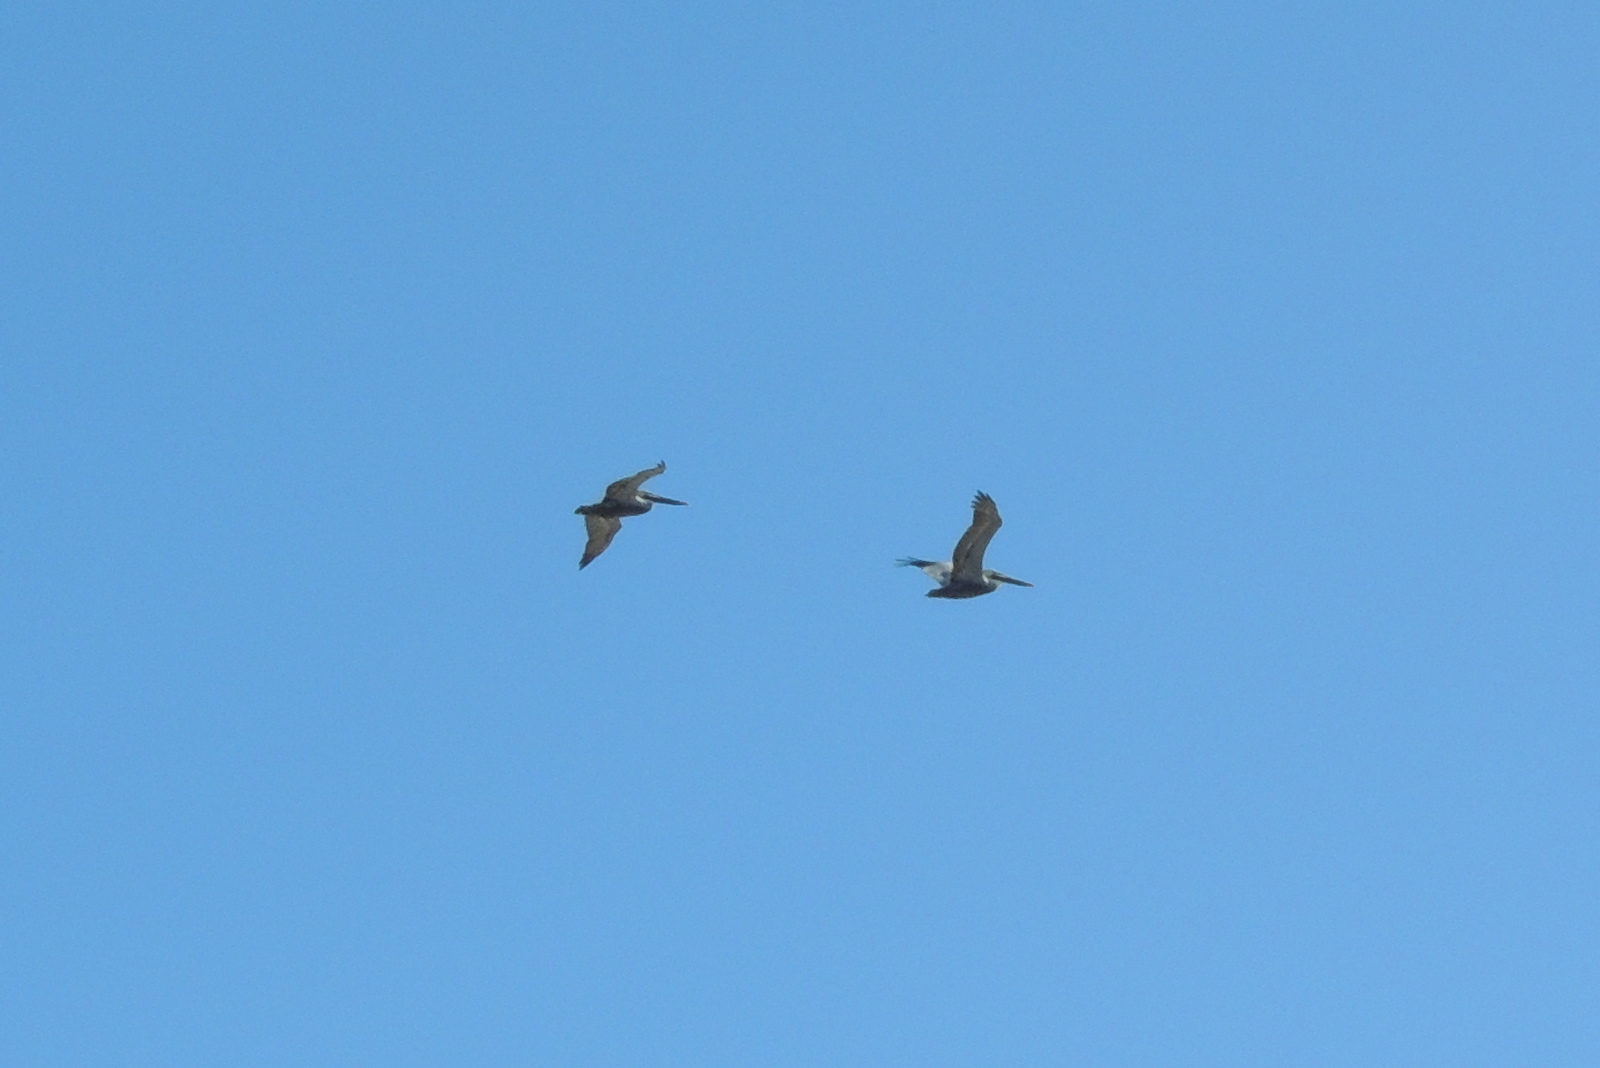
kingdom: Animalia
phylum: Chordata
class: Aves
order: Pelecaniformes
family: Pelecanidae
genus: Pelecanus
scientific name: Pelecanus occidentalis
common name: Brown pelican
